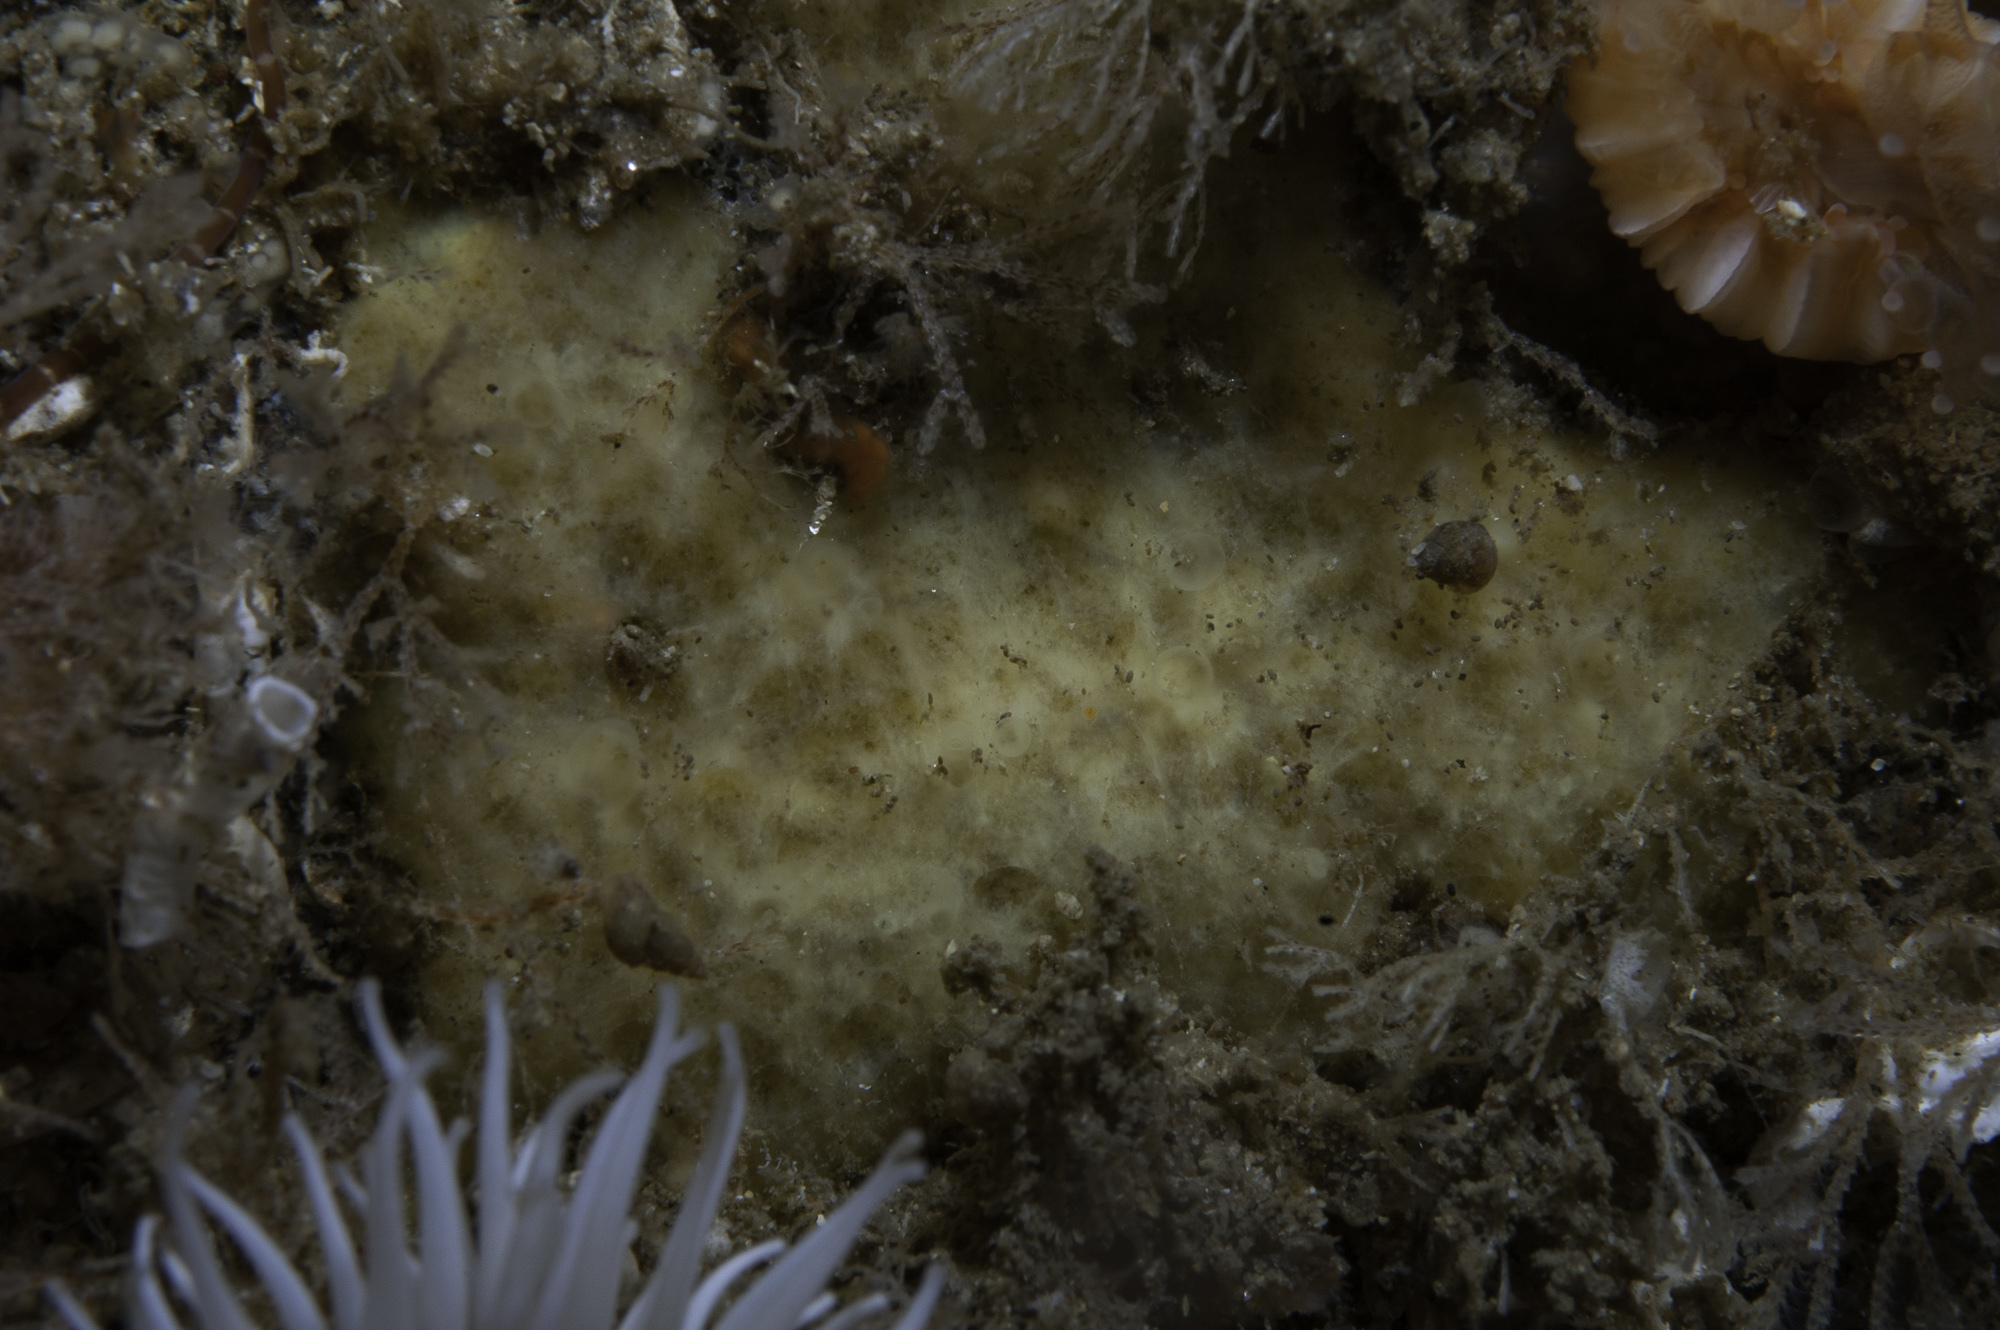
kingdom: Animalia
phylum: Porifera
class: Demospongiae
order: Axinellida
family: Stelligeridae
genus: Paratimea
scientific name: Paratimea loennbergi
